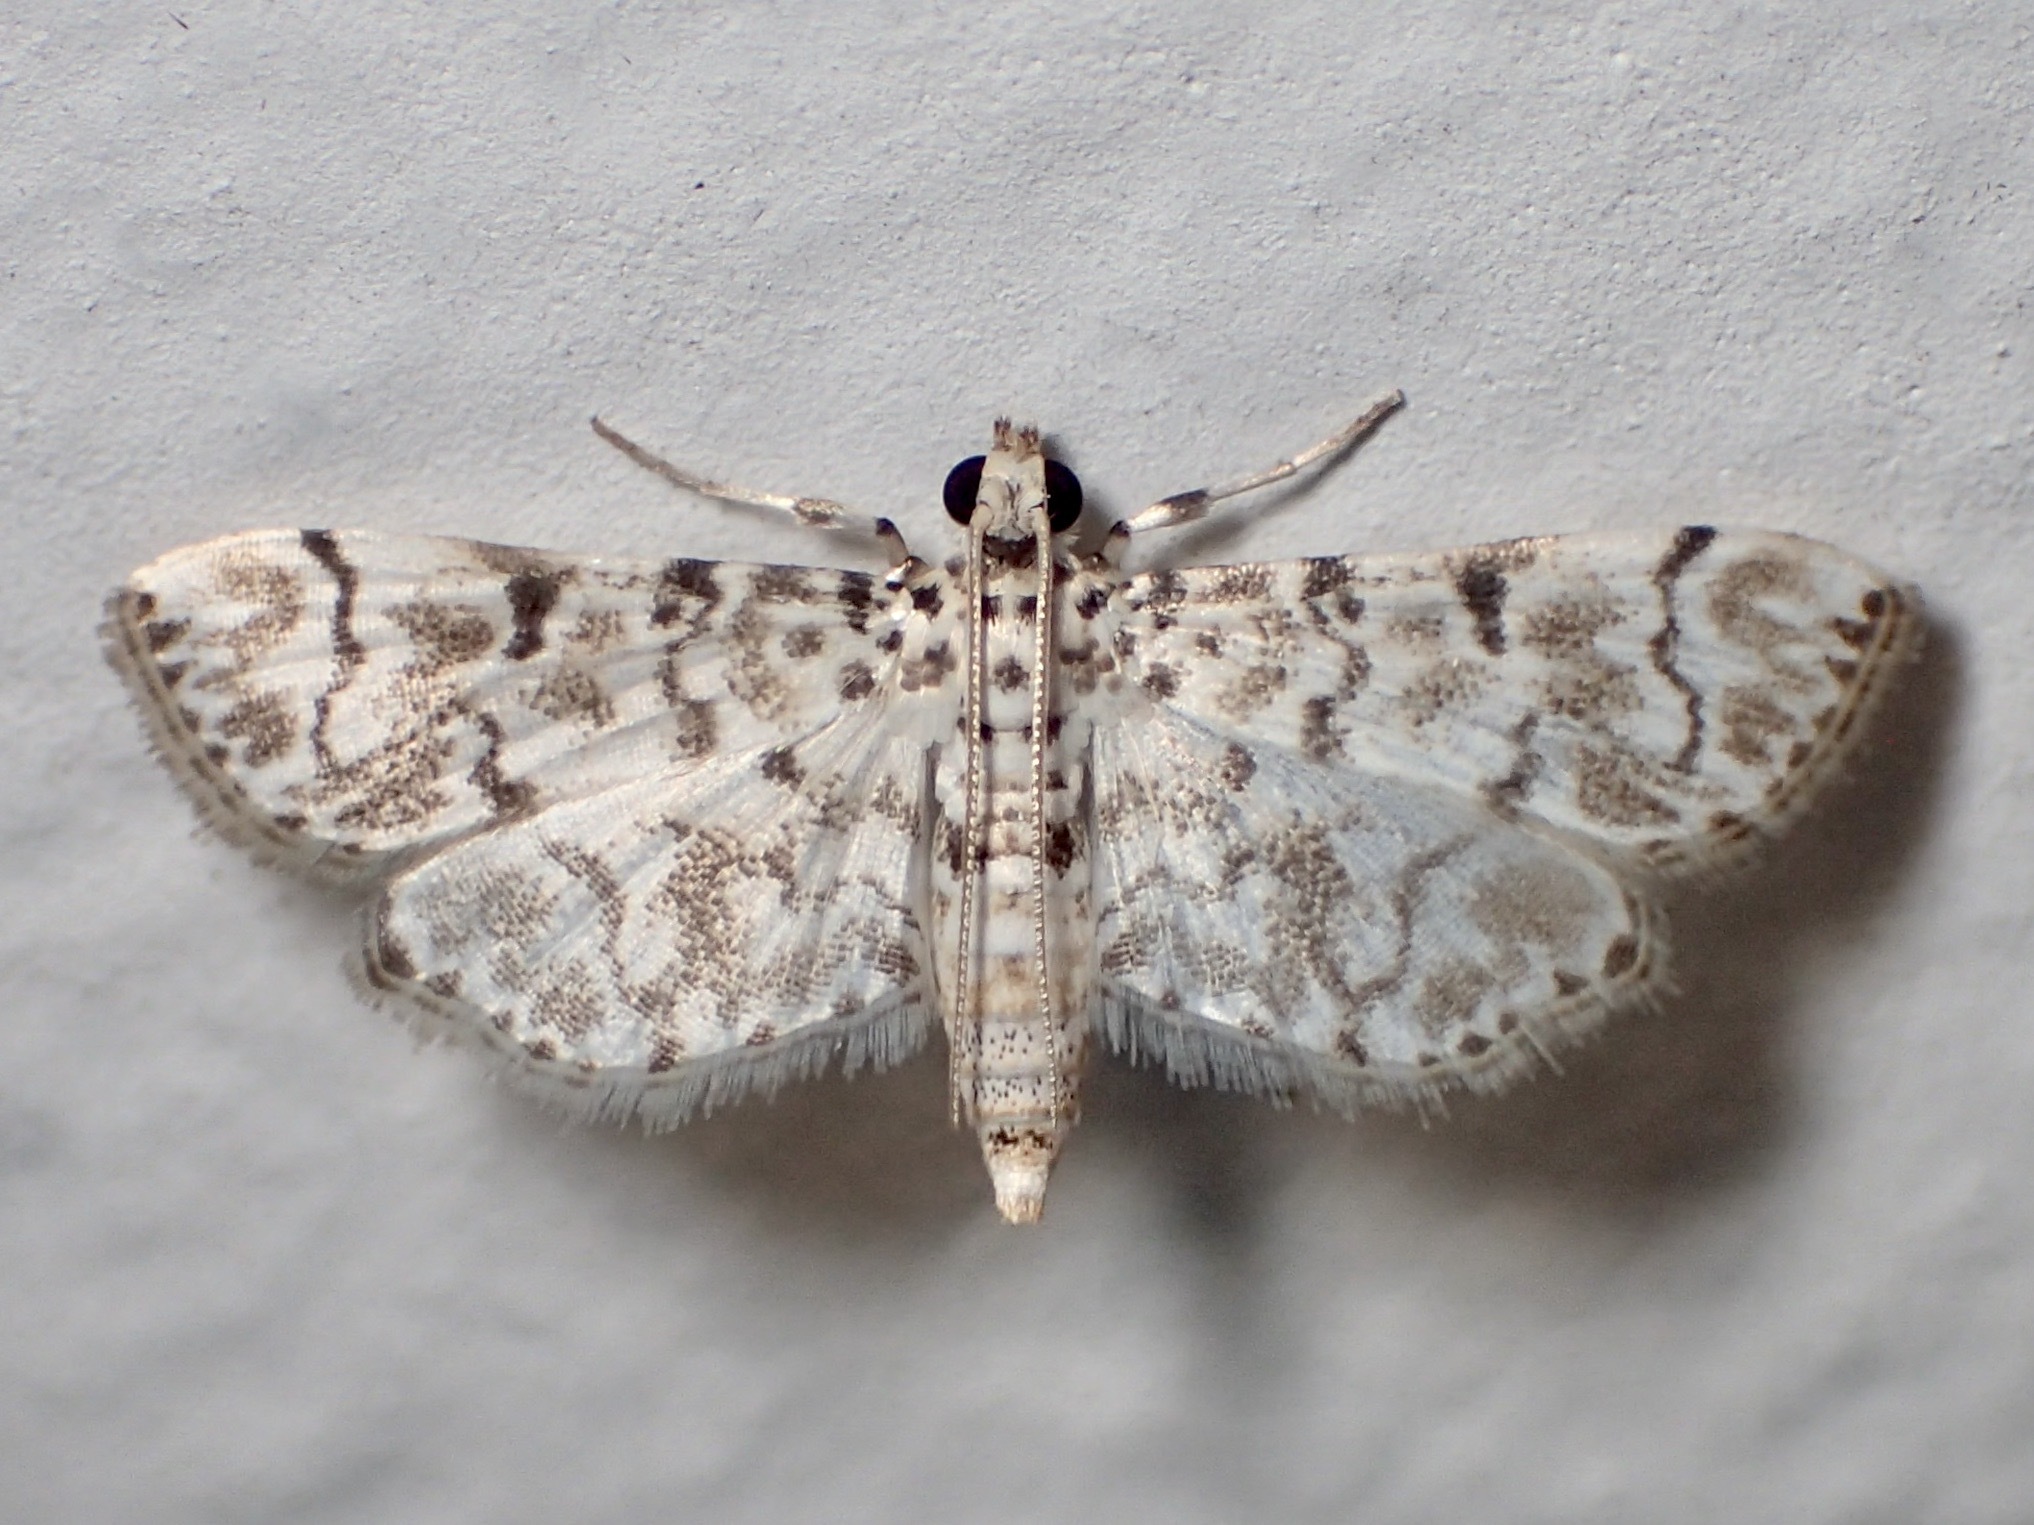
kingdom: Animalia
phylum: Arthropoda
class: Insecta
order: Lepidoptera
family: Crambidae
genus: Metoeca
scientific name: Metoeca foedalis
